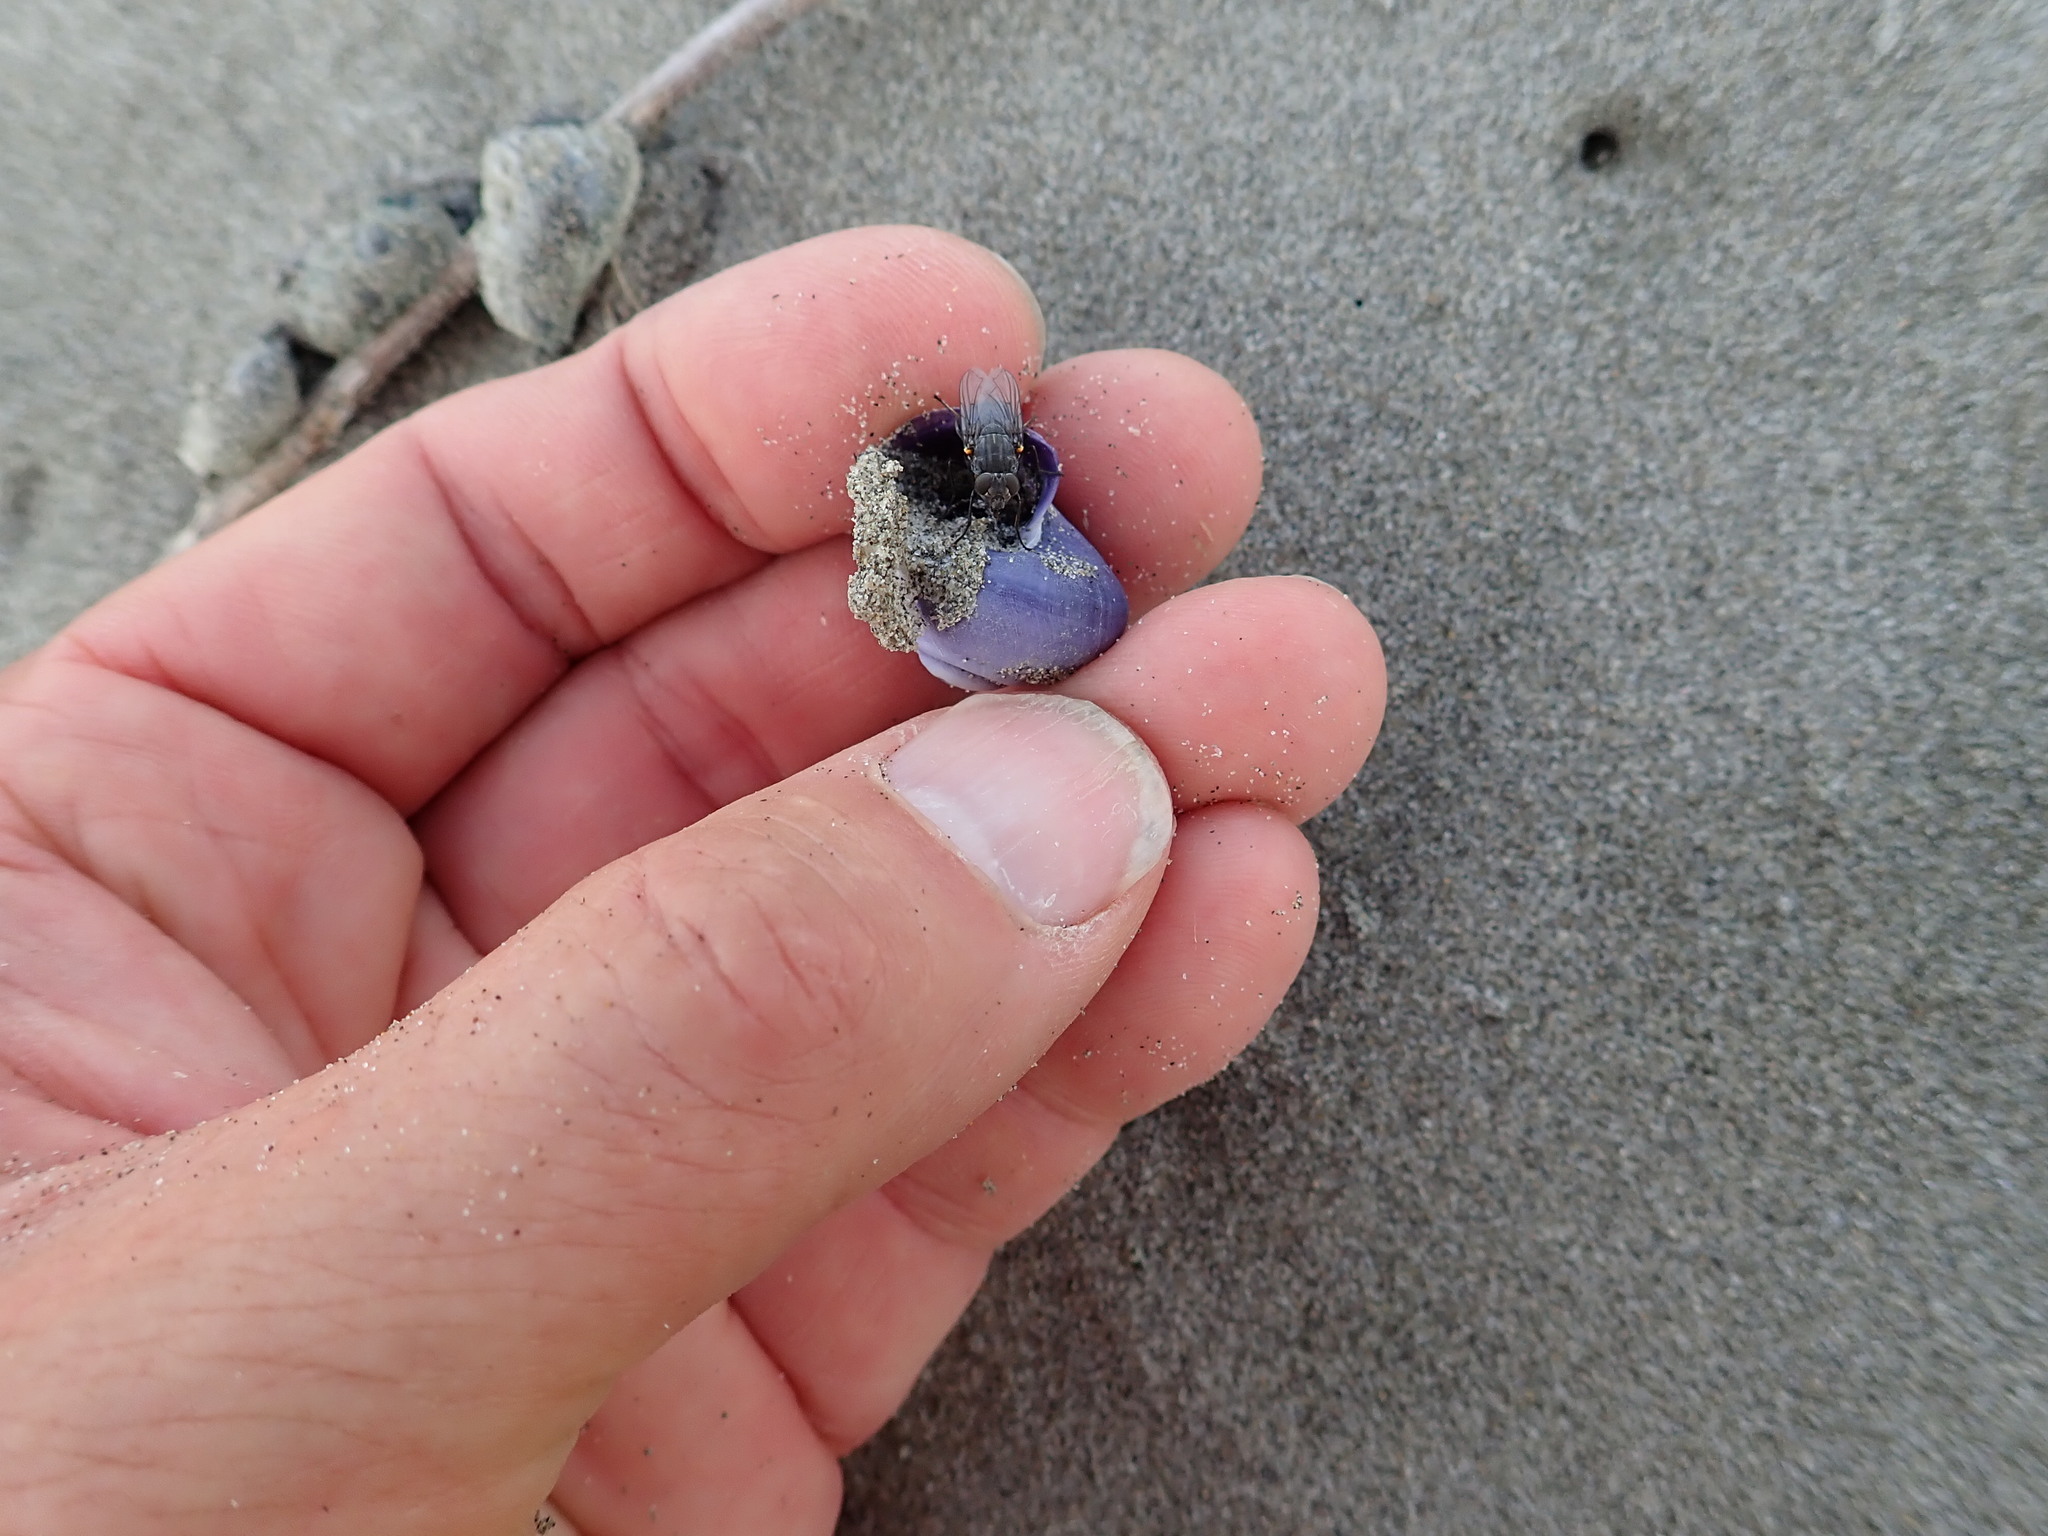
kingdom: Animalia
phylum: Mollusca
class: Gastropoda
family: Epitoniidae
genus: Janthina
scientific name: Janthina janthina
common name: Common janthina
